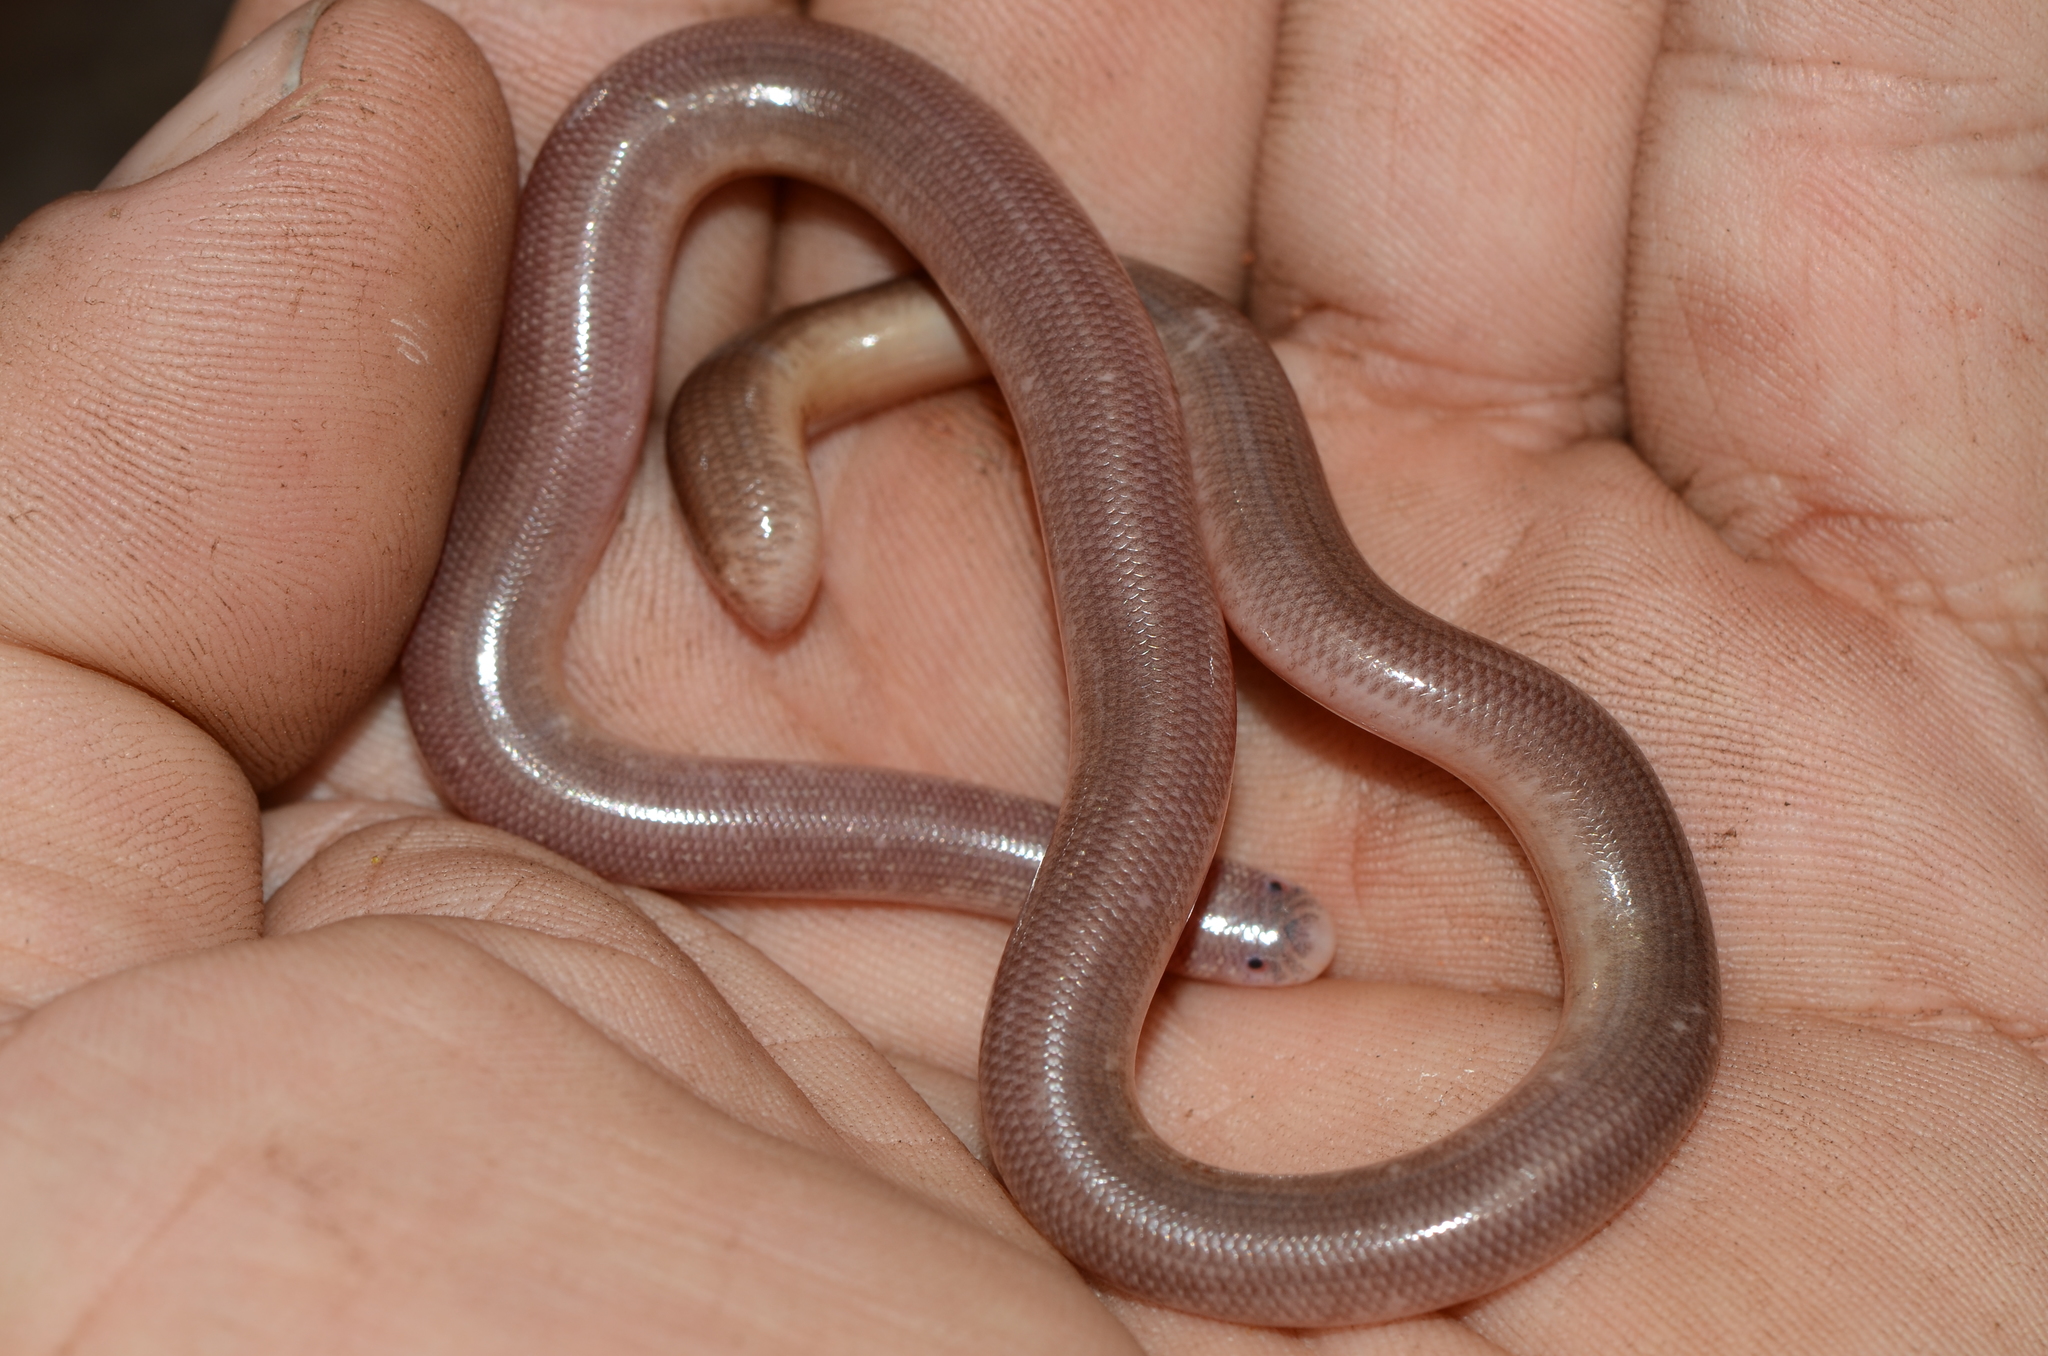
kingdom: Animalia
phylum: Chordata
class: Squamata
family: Typhlopidae
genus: Afrotyphlops
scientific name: Afrotyphlops bibronii
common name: Bibron's blind snake
